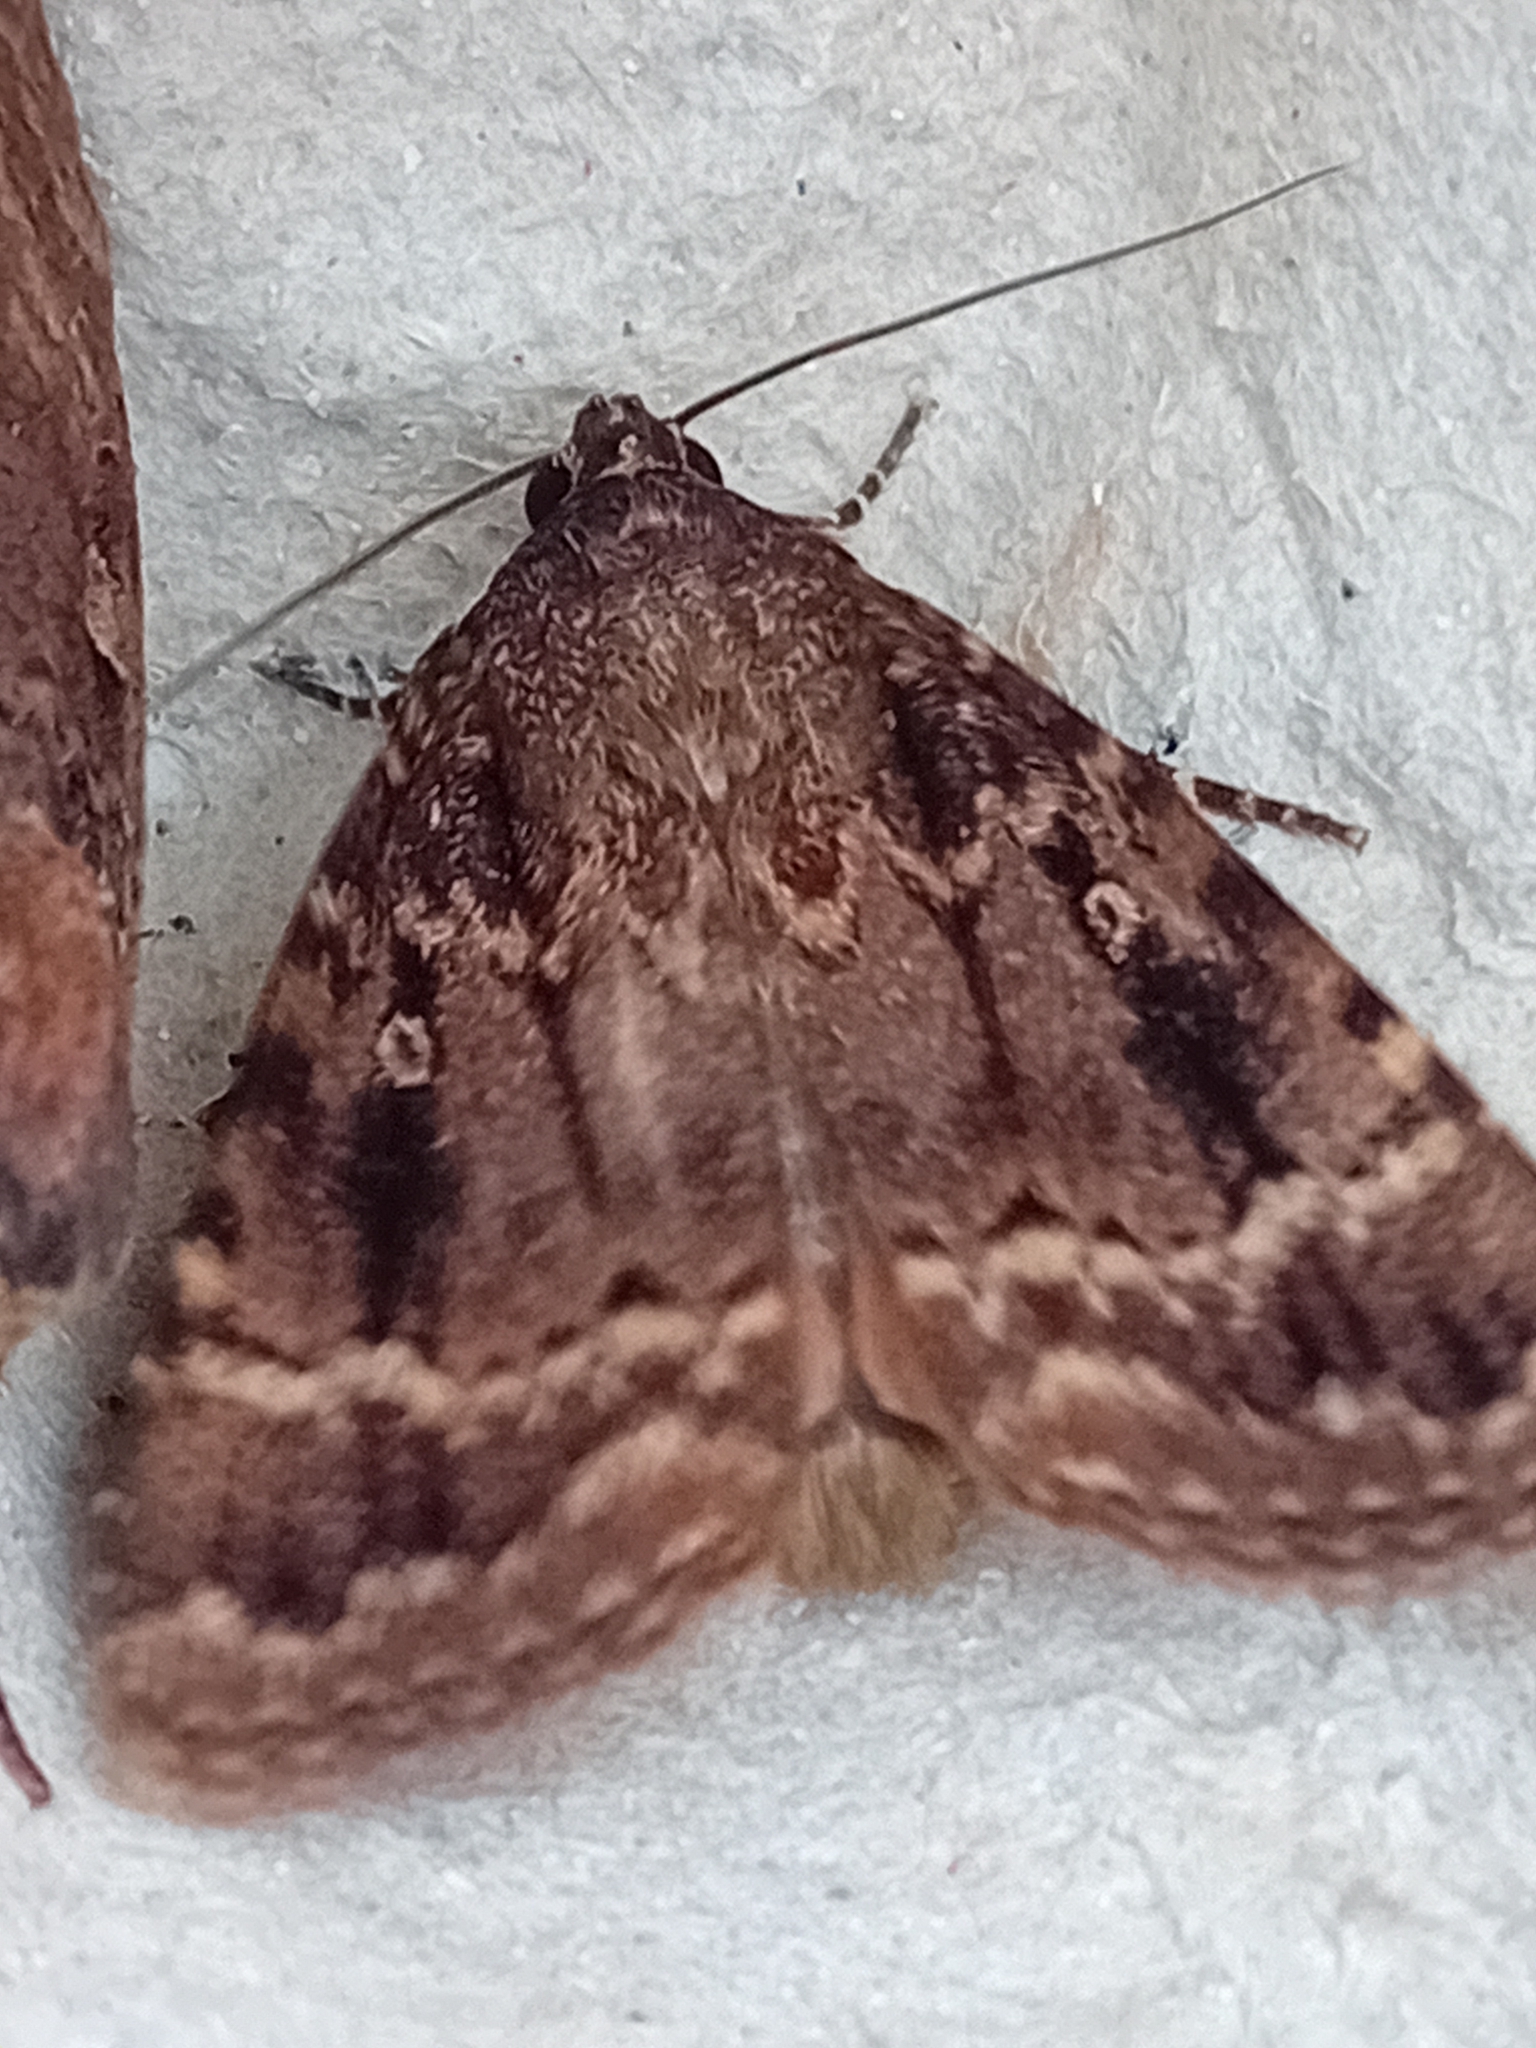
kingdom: Animalia
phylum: Arthropoda
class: Insecta
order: Lepidoptera
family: Noctuidae
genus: Amphipyra
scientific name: Amphipyra pyramidea
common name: Copper underwing
